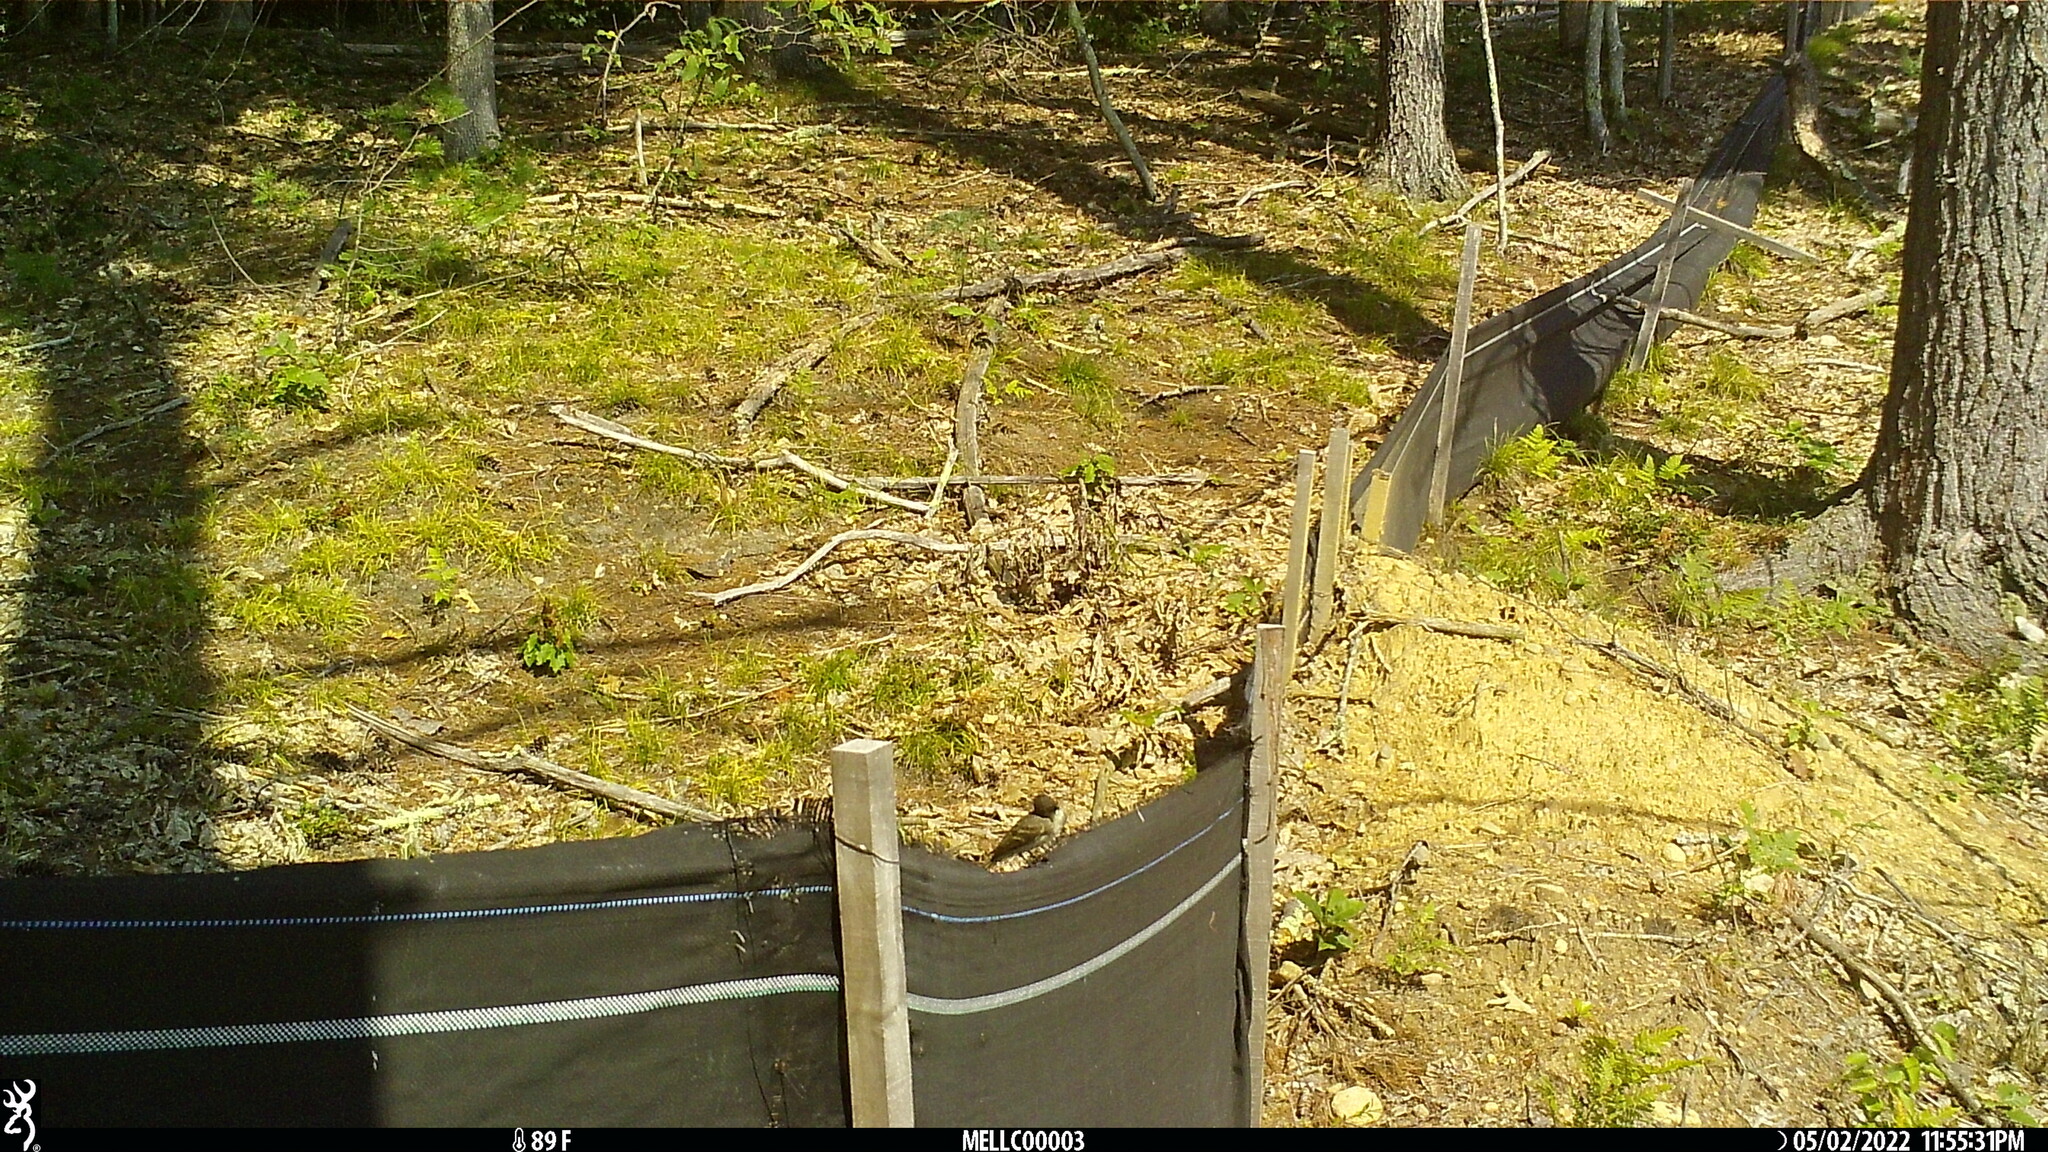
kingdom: Animalia
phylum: Chordata
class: Aves
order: Passeriformes
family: Tyrannidae
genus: Sayornis
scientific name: Sayornis phoebe
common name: Eastern phoebe
